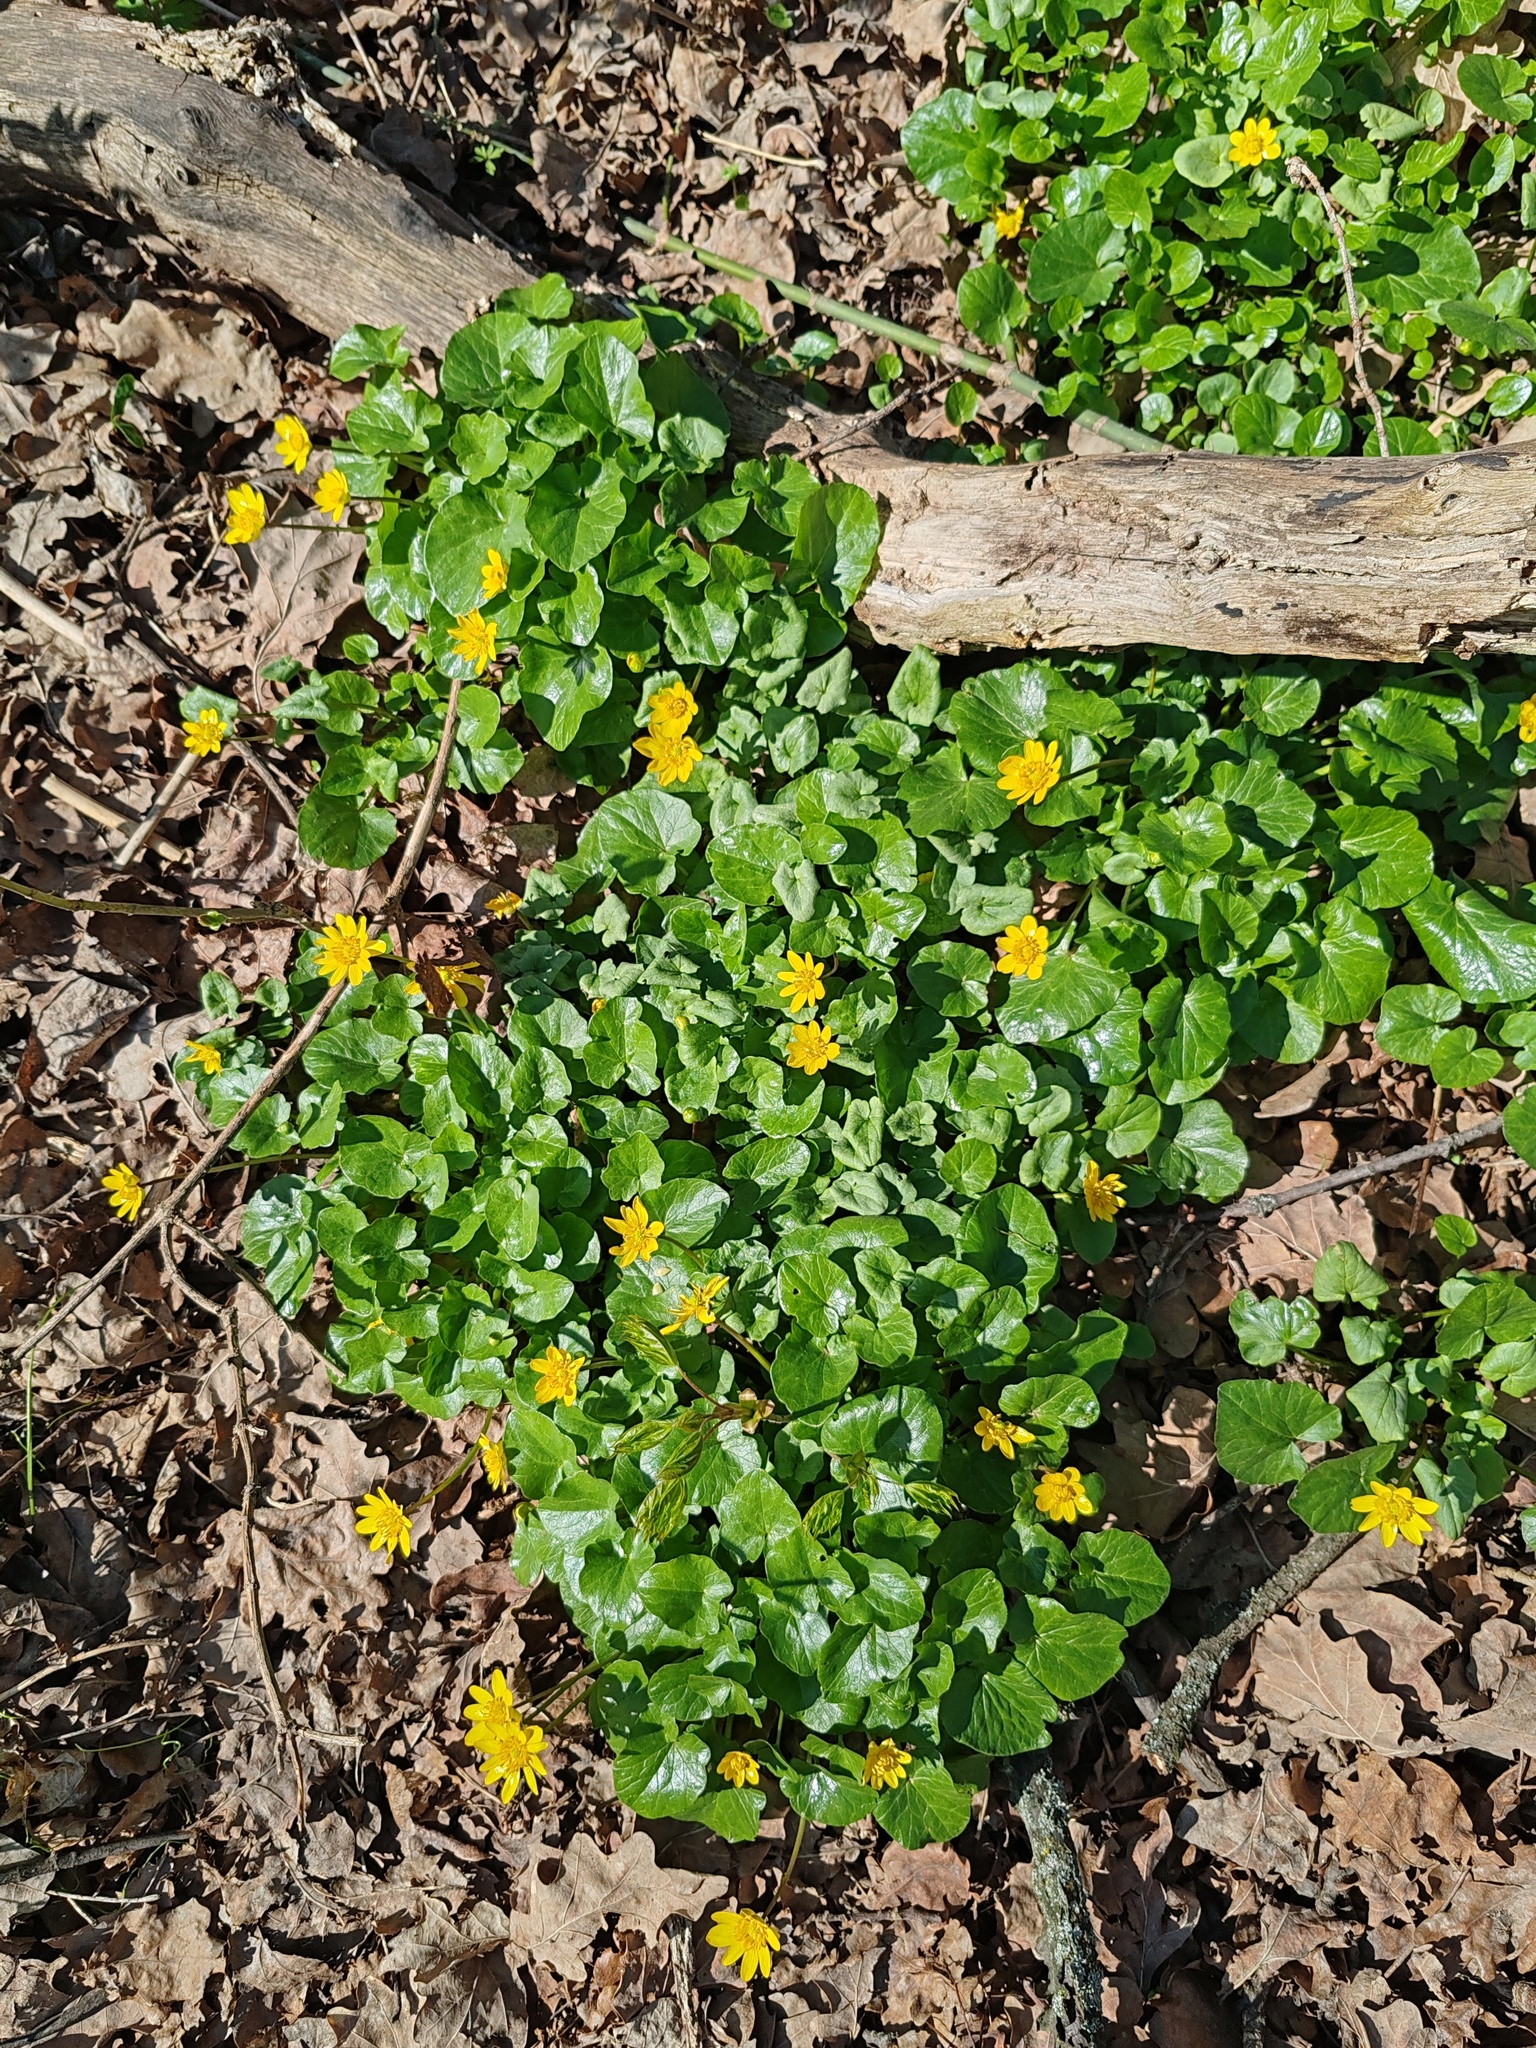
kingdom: Plantae
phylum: Tracheophyta
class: Magnoliopsida
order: Ranunculales
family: Ranunculaceae
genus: Ficaria
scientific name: Ficaria verna
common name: Lesser celandine
